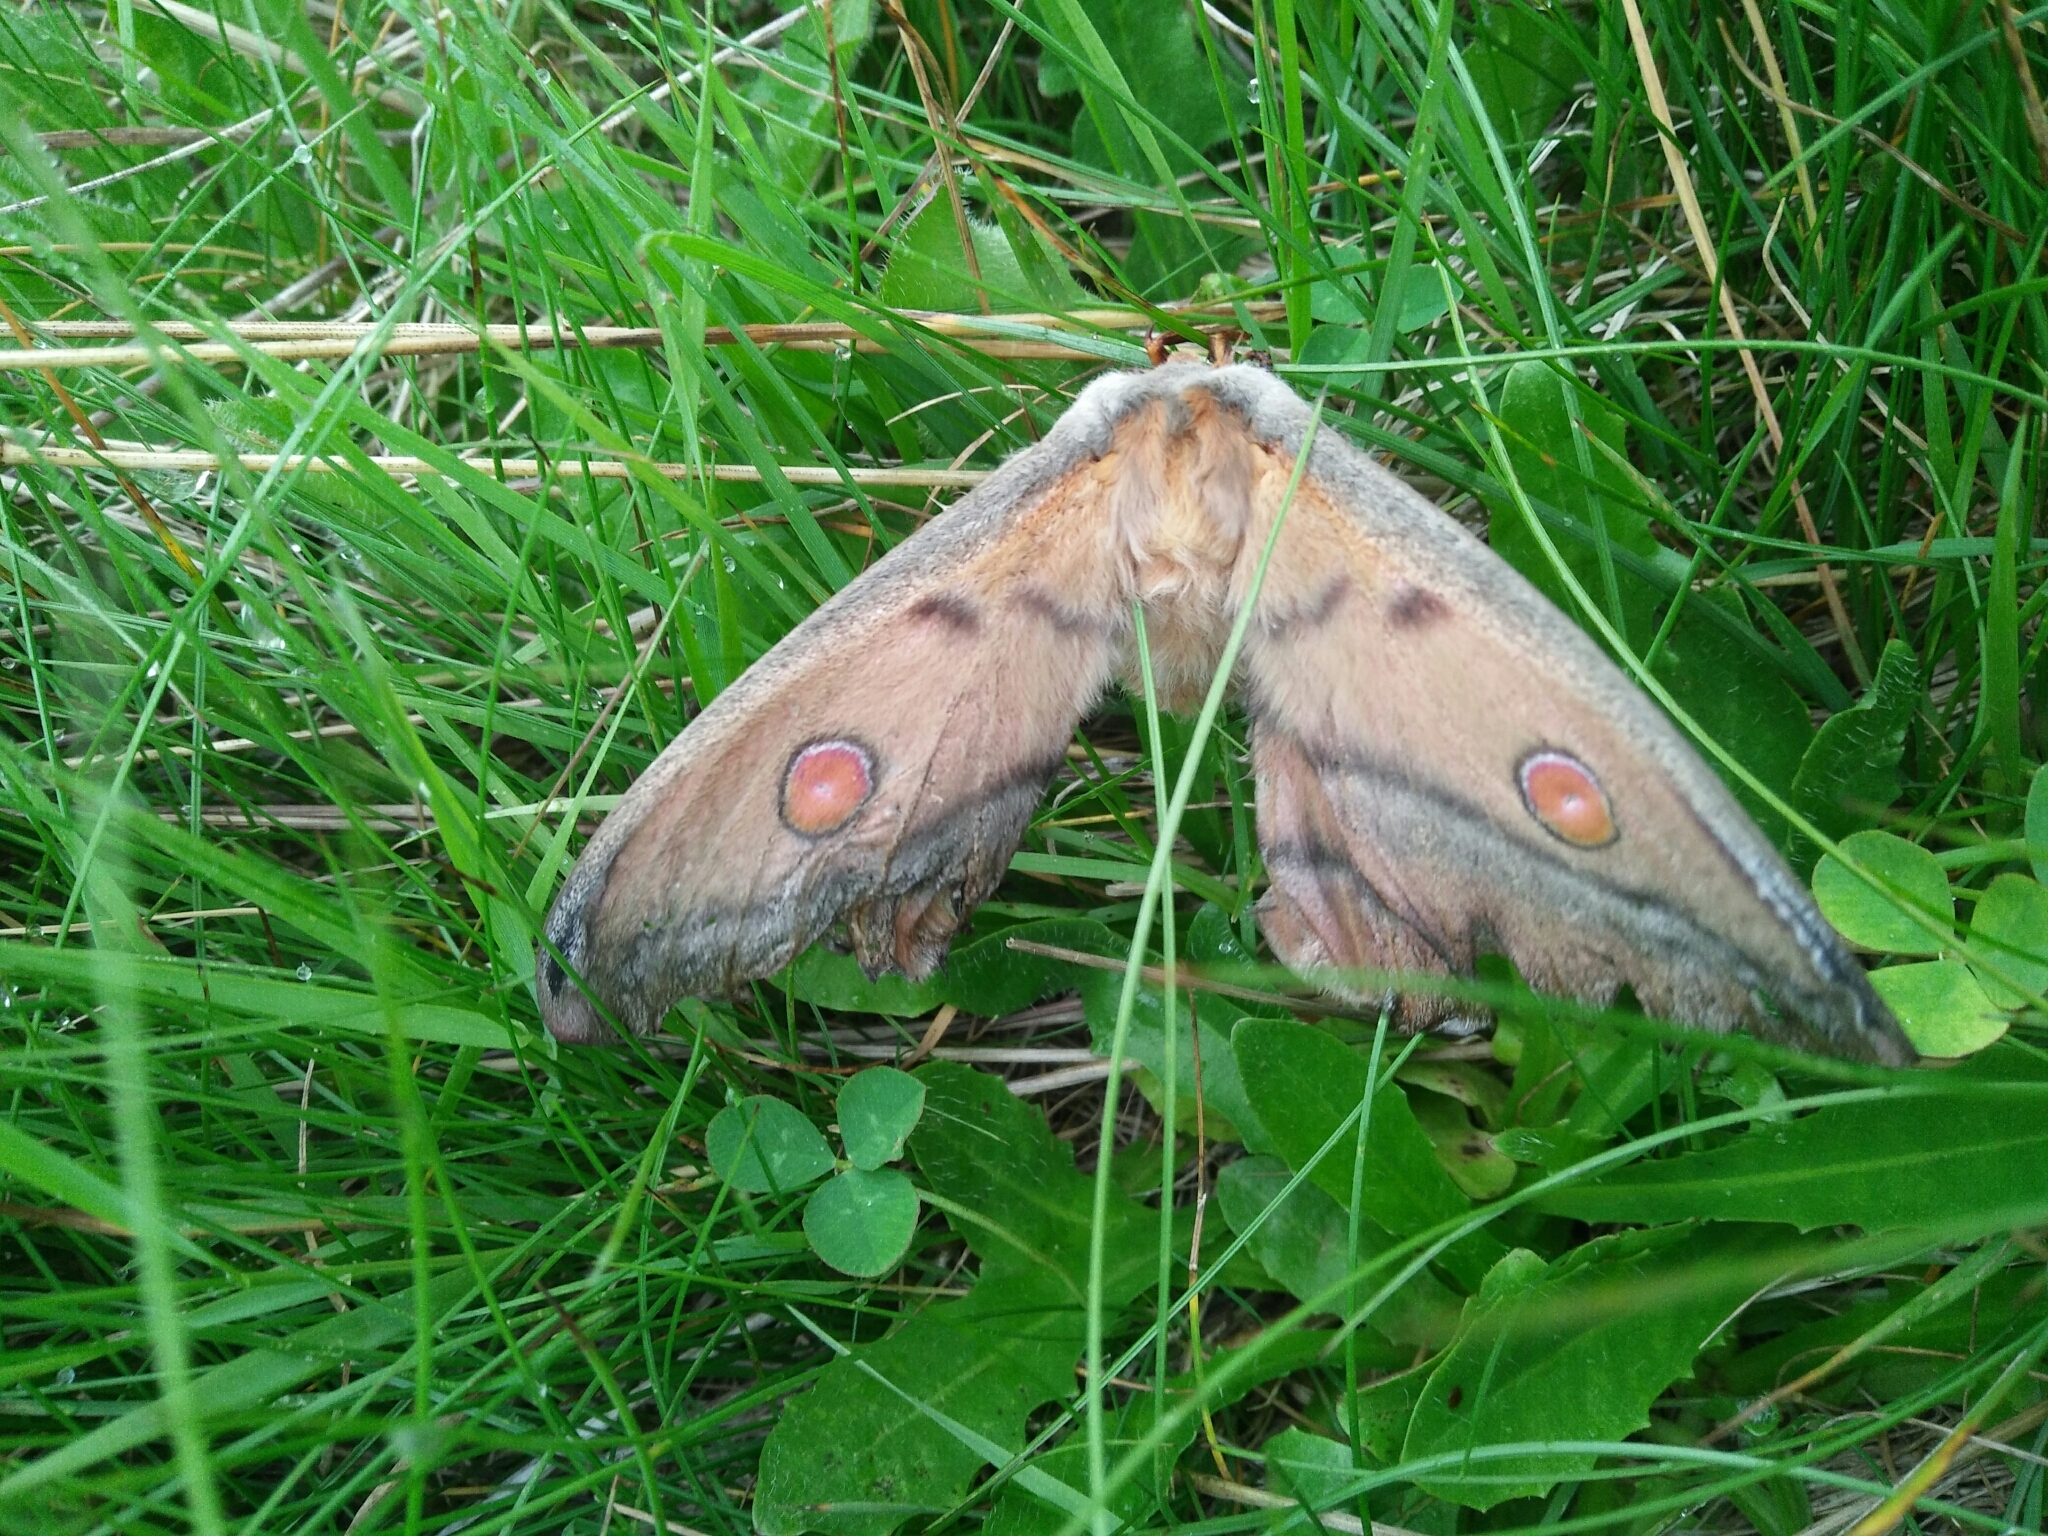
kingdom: Animalia
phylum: Arthropoda
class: Insecta
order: Lepidoptera
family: Saturniidae
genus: Opodiphthera
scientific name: Opodiphthera
